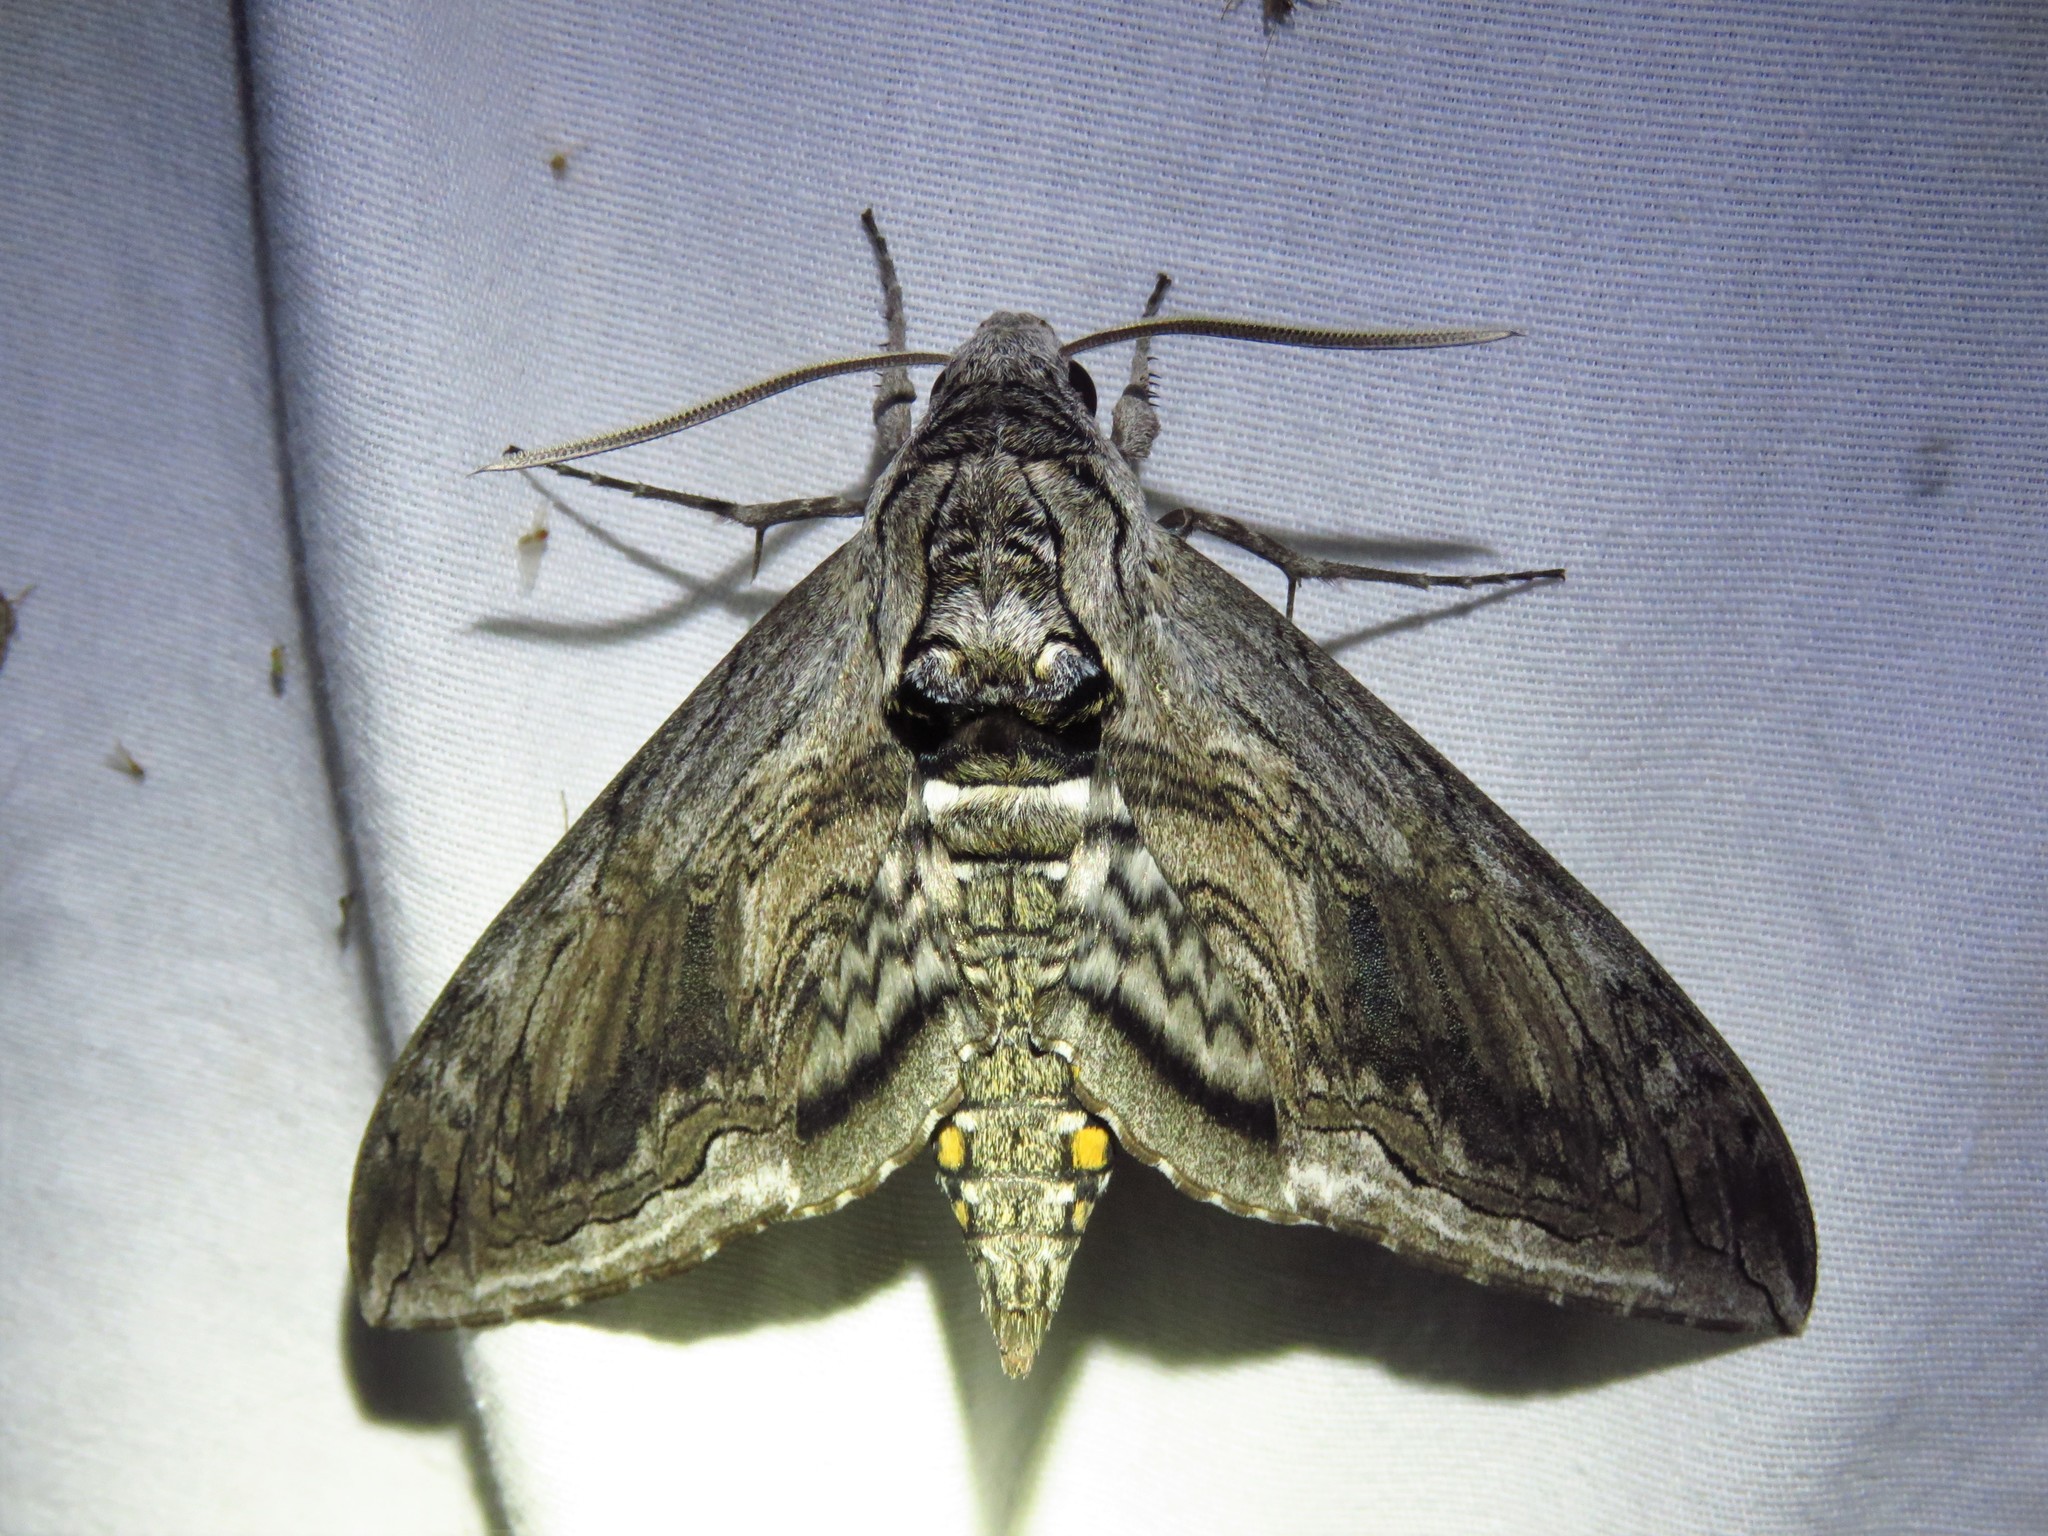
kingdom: Animalia
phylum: Arthropoda
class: Insecta
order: Lepidoptera
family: Sphingidae
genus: Manduca
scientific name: Manduca quinquemaculatus
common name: Five-spotted hawk-moth
